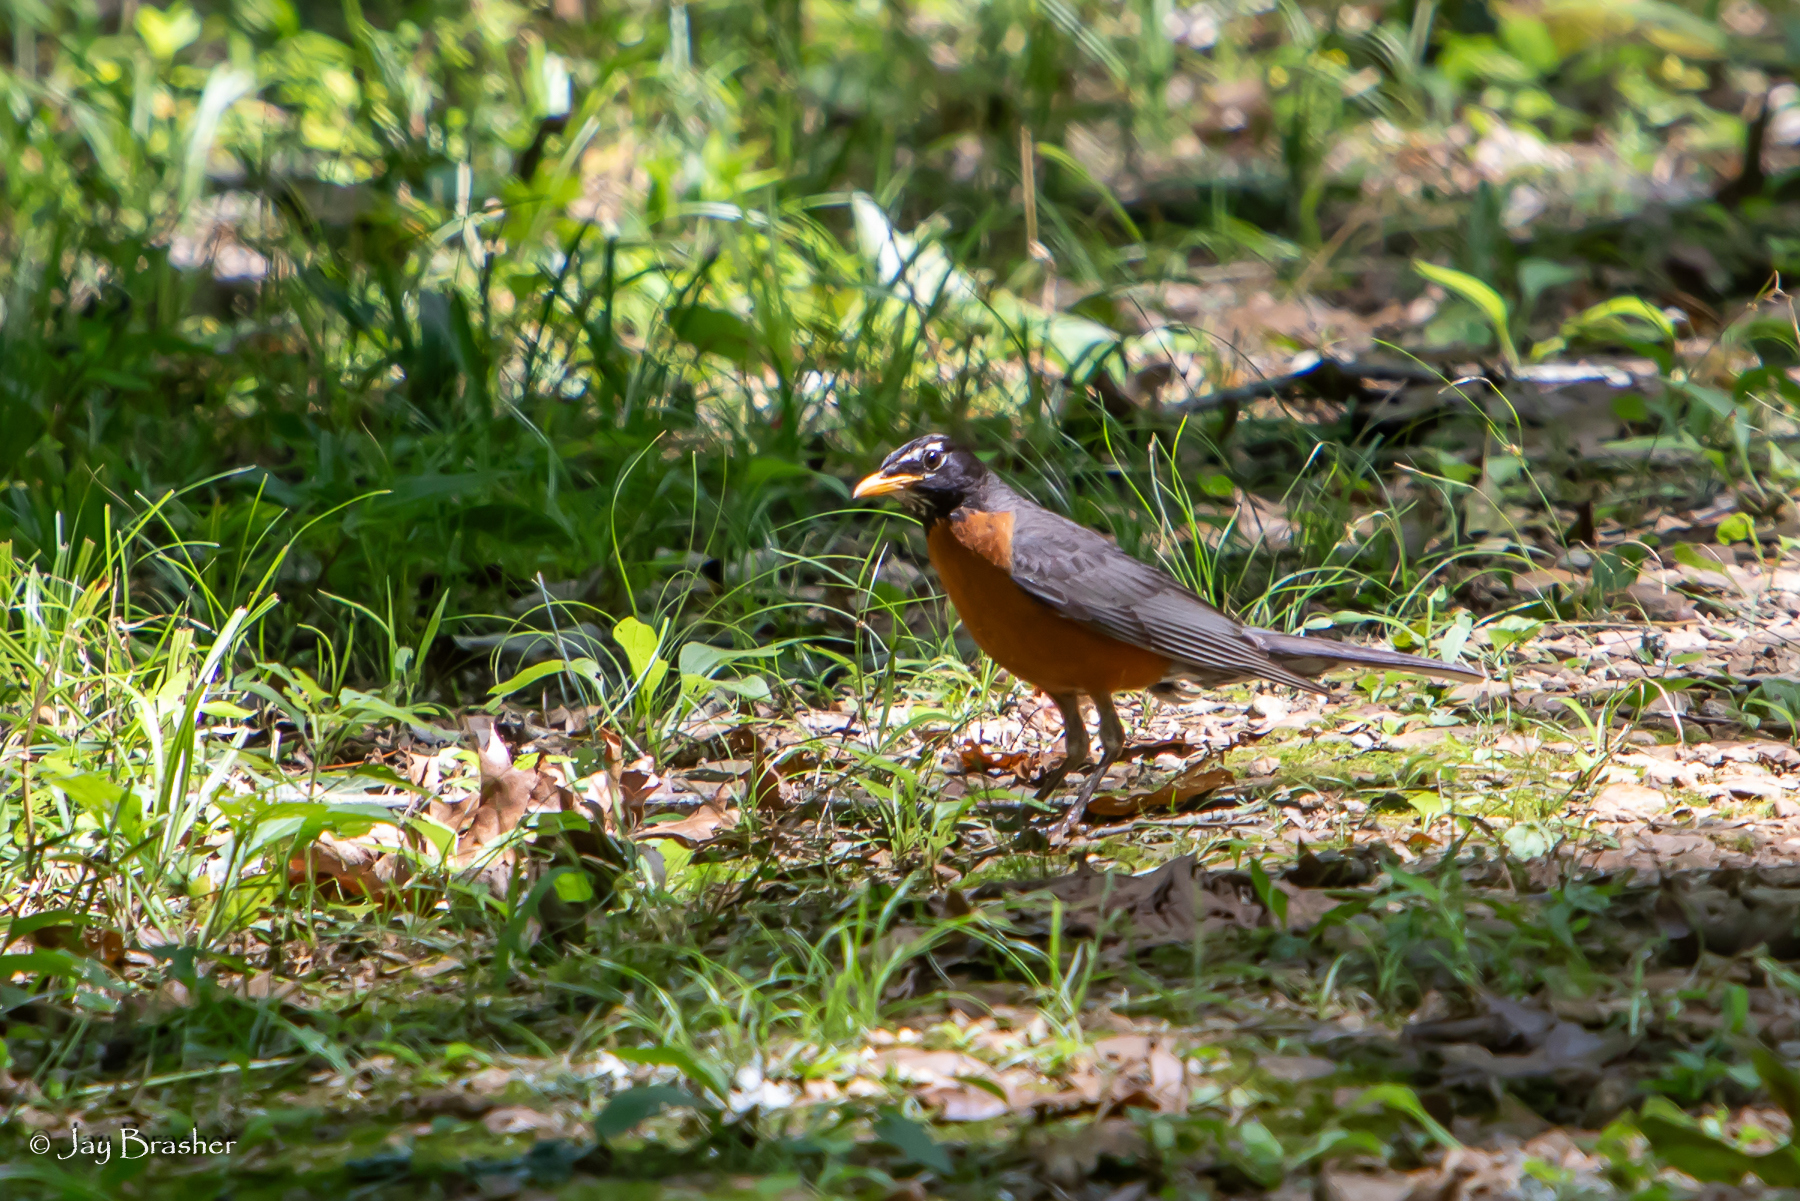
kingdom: Animalia
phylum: Chordata
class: Aves
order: Passeriformes
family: Turdidae
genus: Turdus
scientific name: Turdus migratorius
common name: American robin
